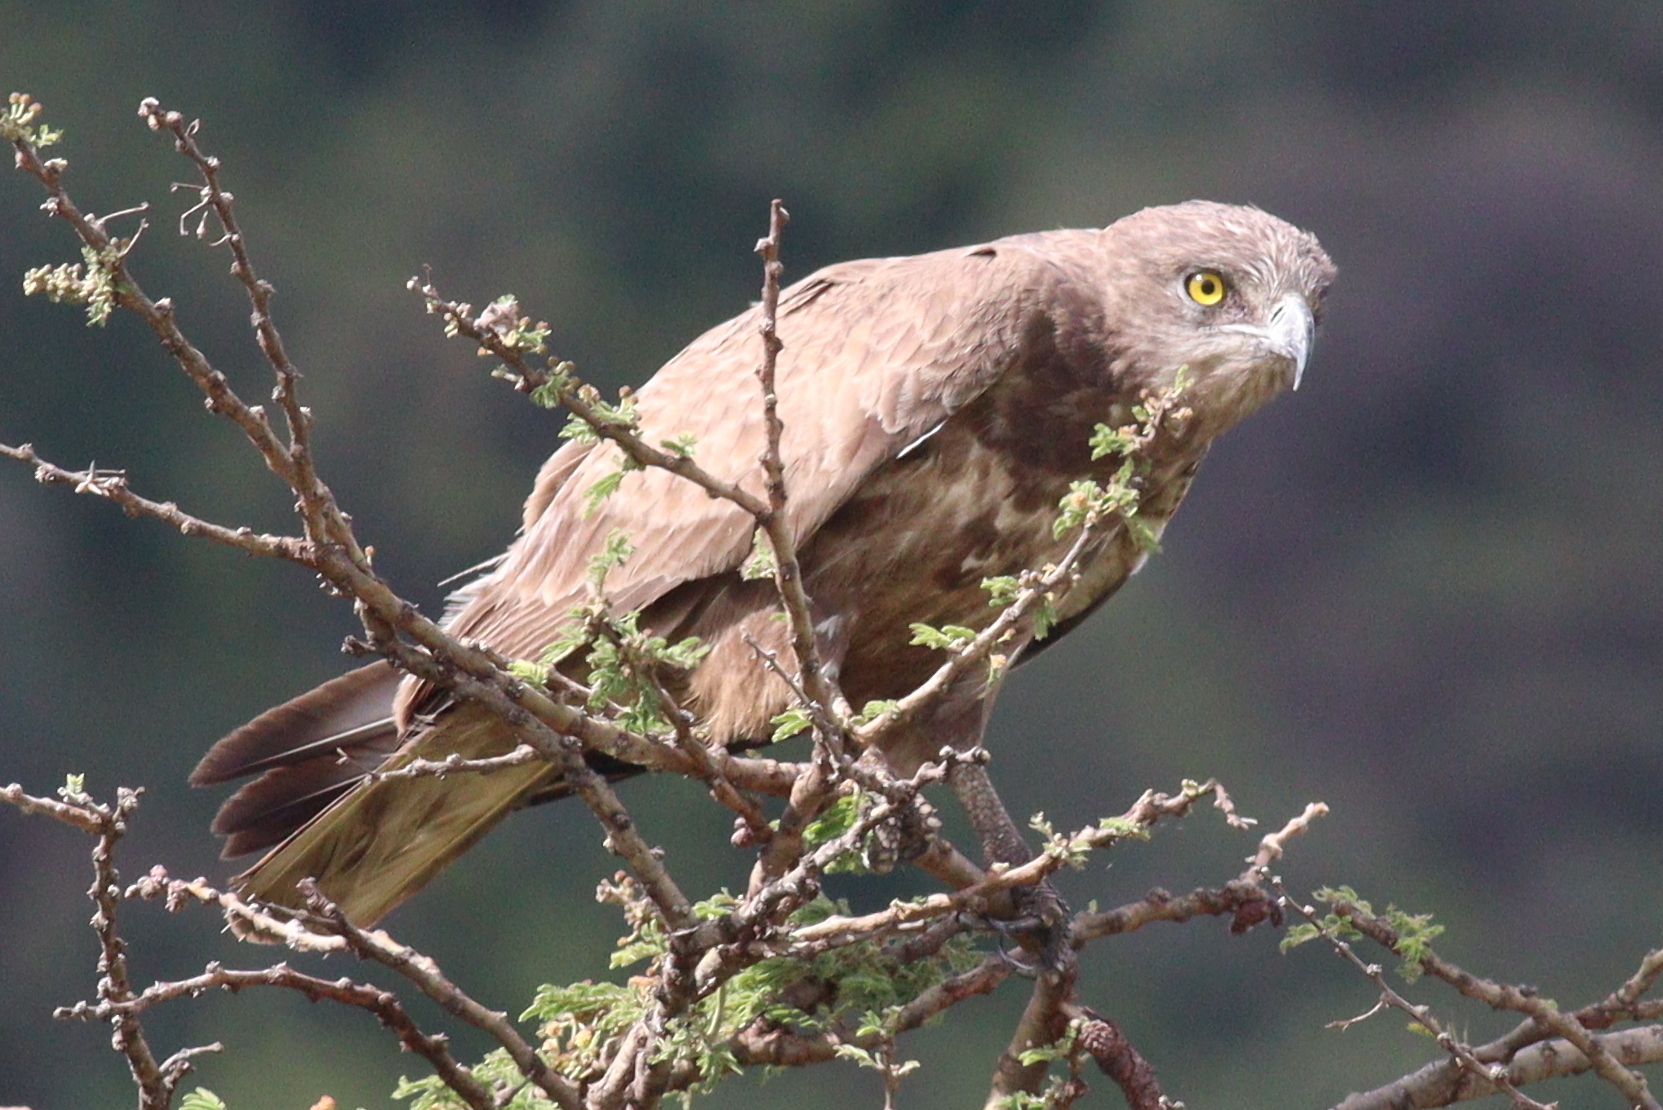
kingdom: Animalia
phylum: Chordata
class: Aves
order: Accipitriformes
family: Accipitridae
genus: Circaetus
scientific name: Circaetus cinereus
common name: Brown snake eagle
